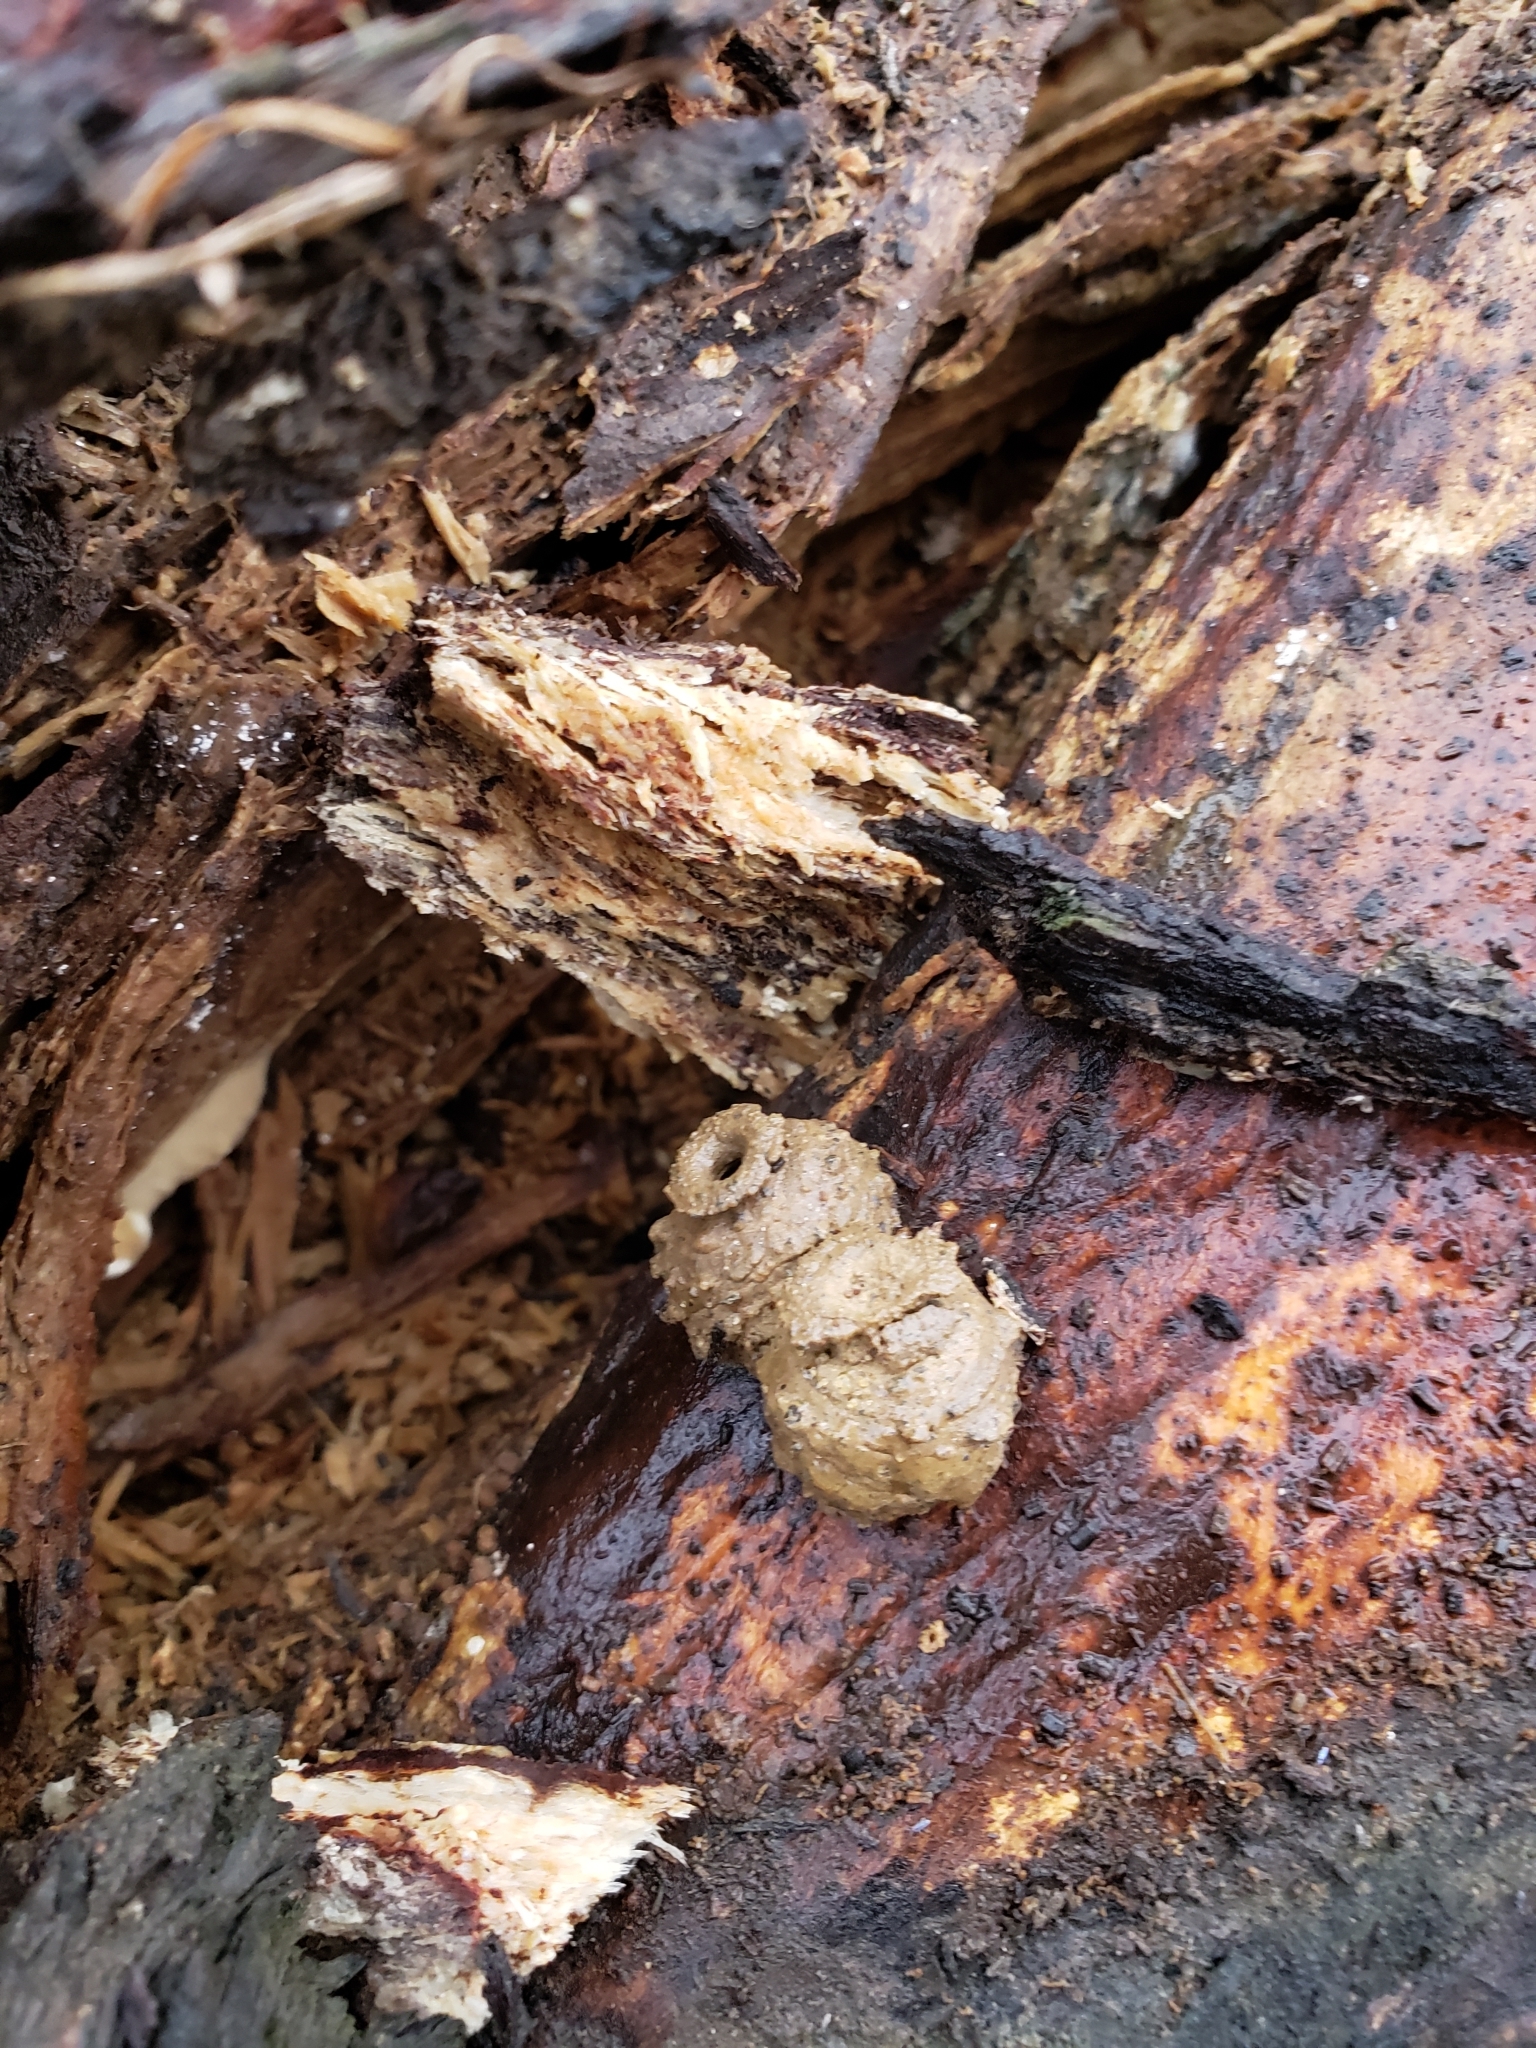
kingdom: Animalia
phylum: Arthropoda
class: Insecta
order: Hymenoptera
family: Vespidae
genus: Eumenes
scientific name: Eumenes
